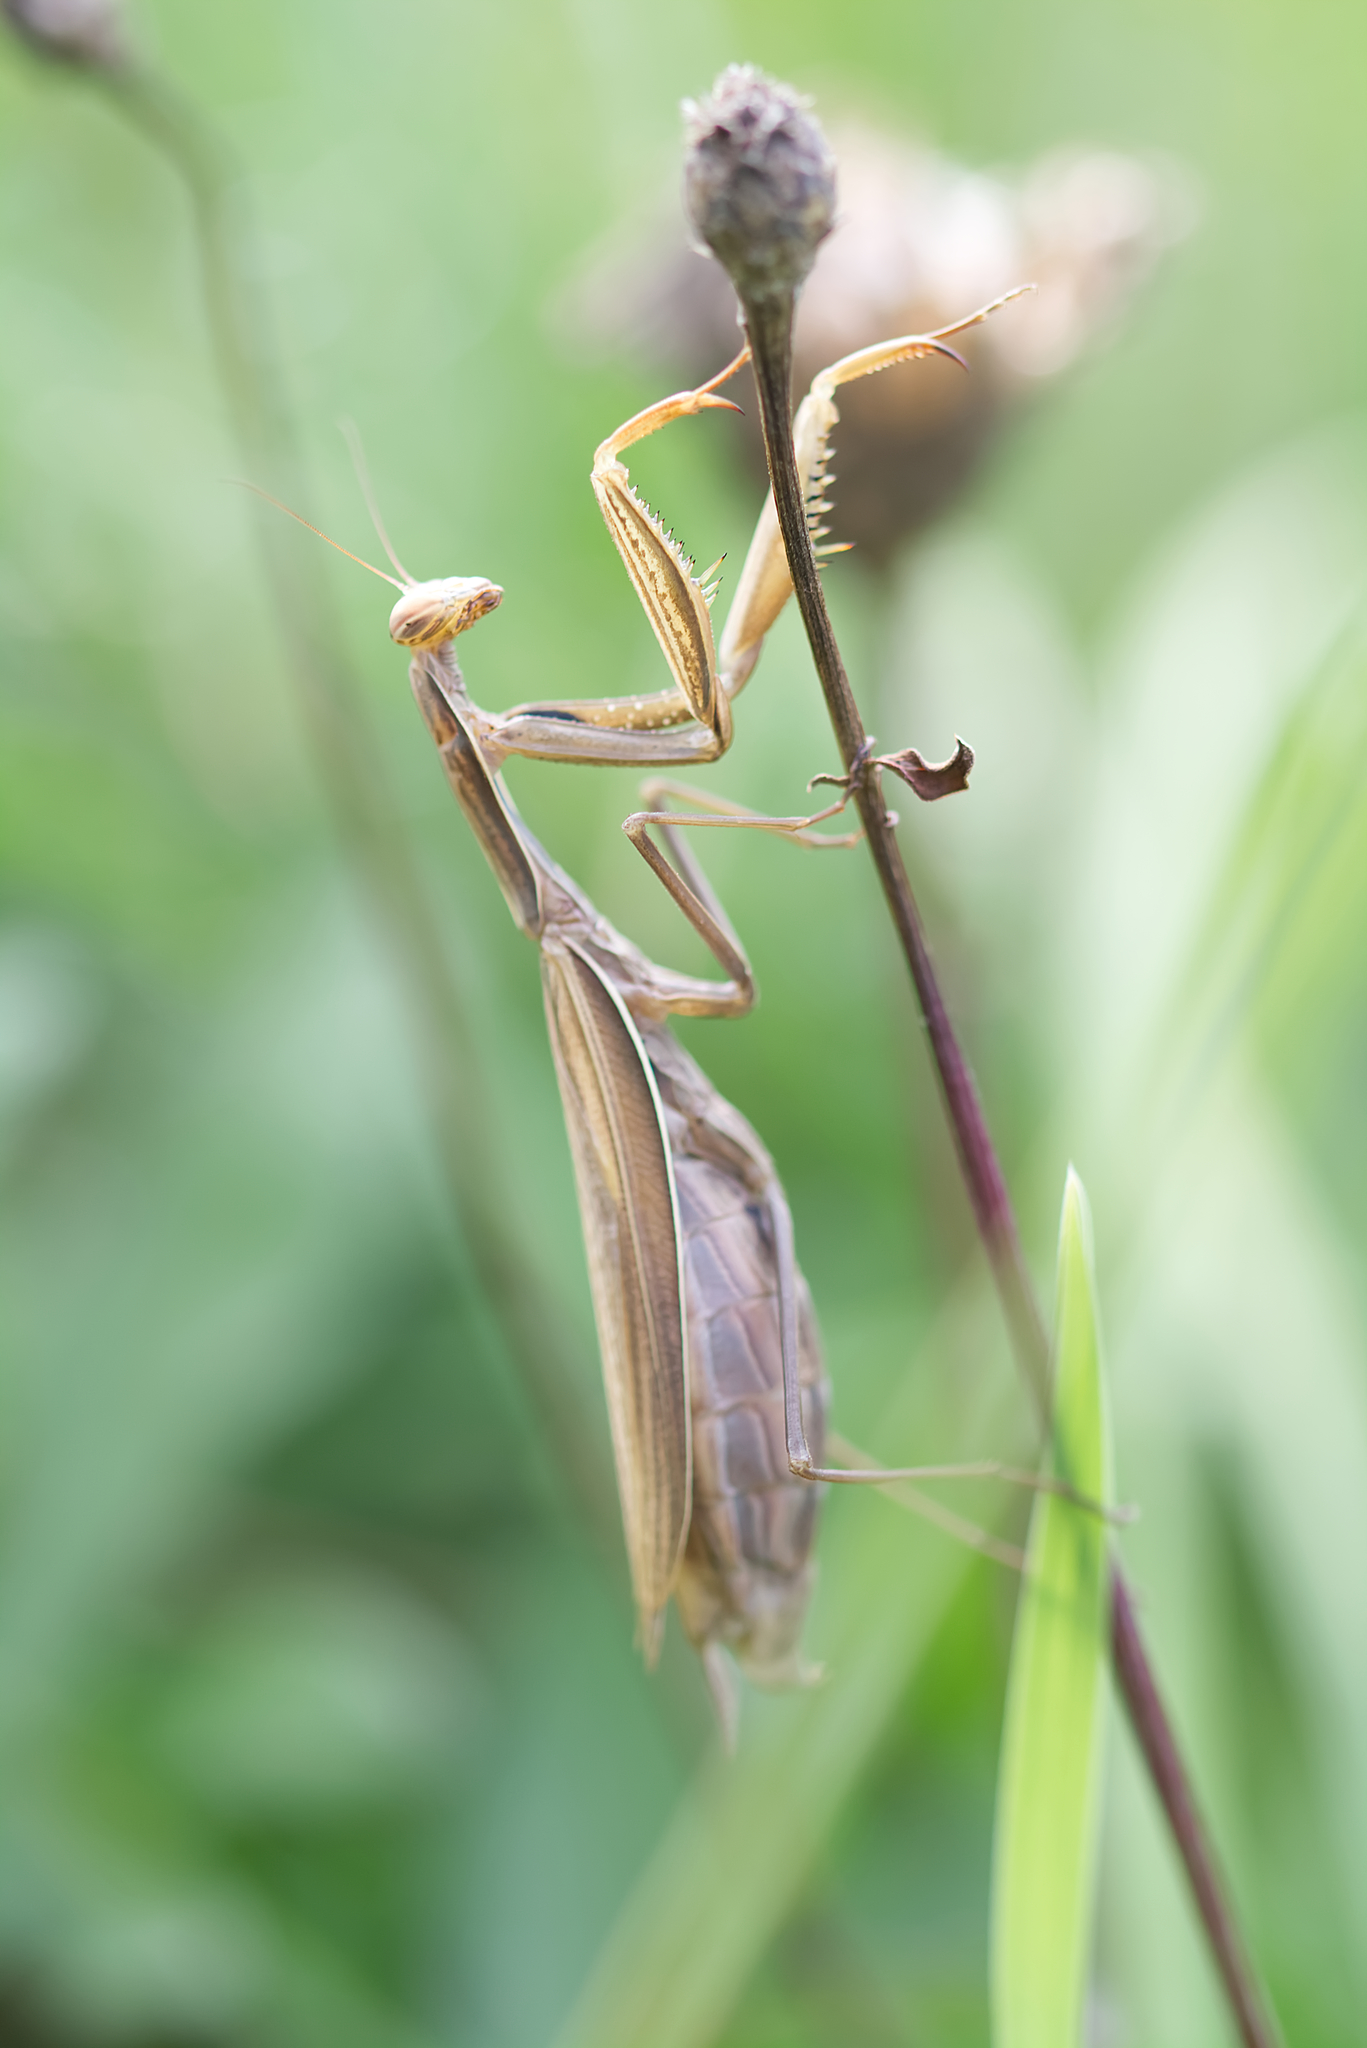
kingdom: Animalia
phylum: Arthropoda
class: Insecta
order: Mantodea
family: Mantidae
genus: Mantis
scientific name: Mantis religiosa
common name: Praying mantis
